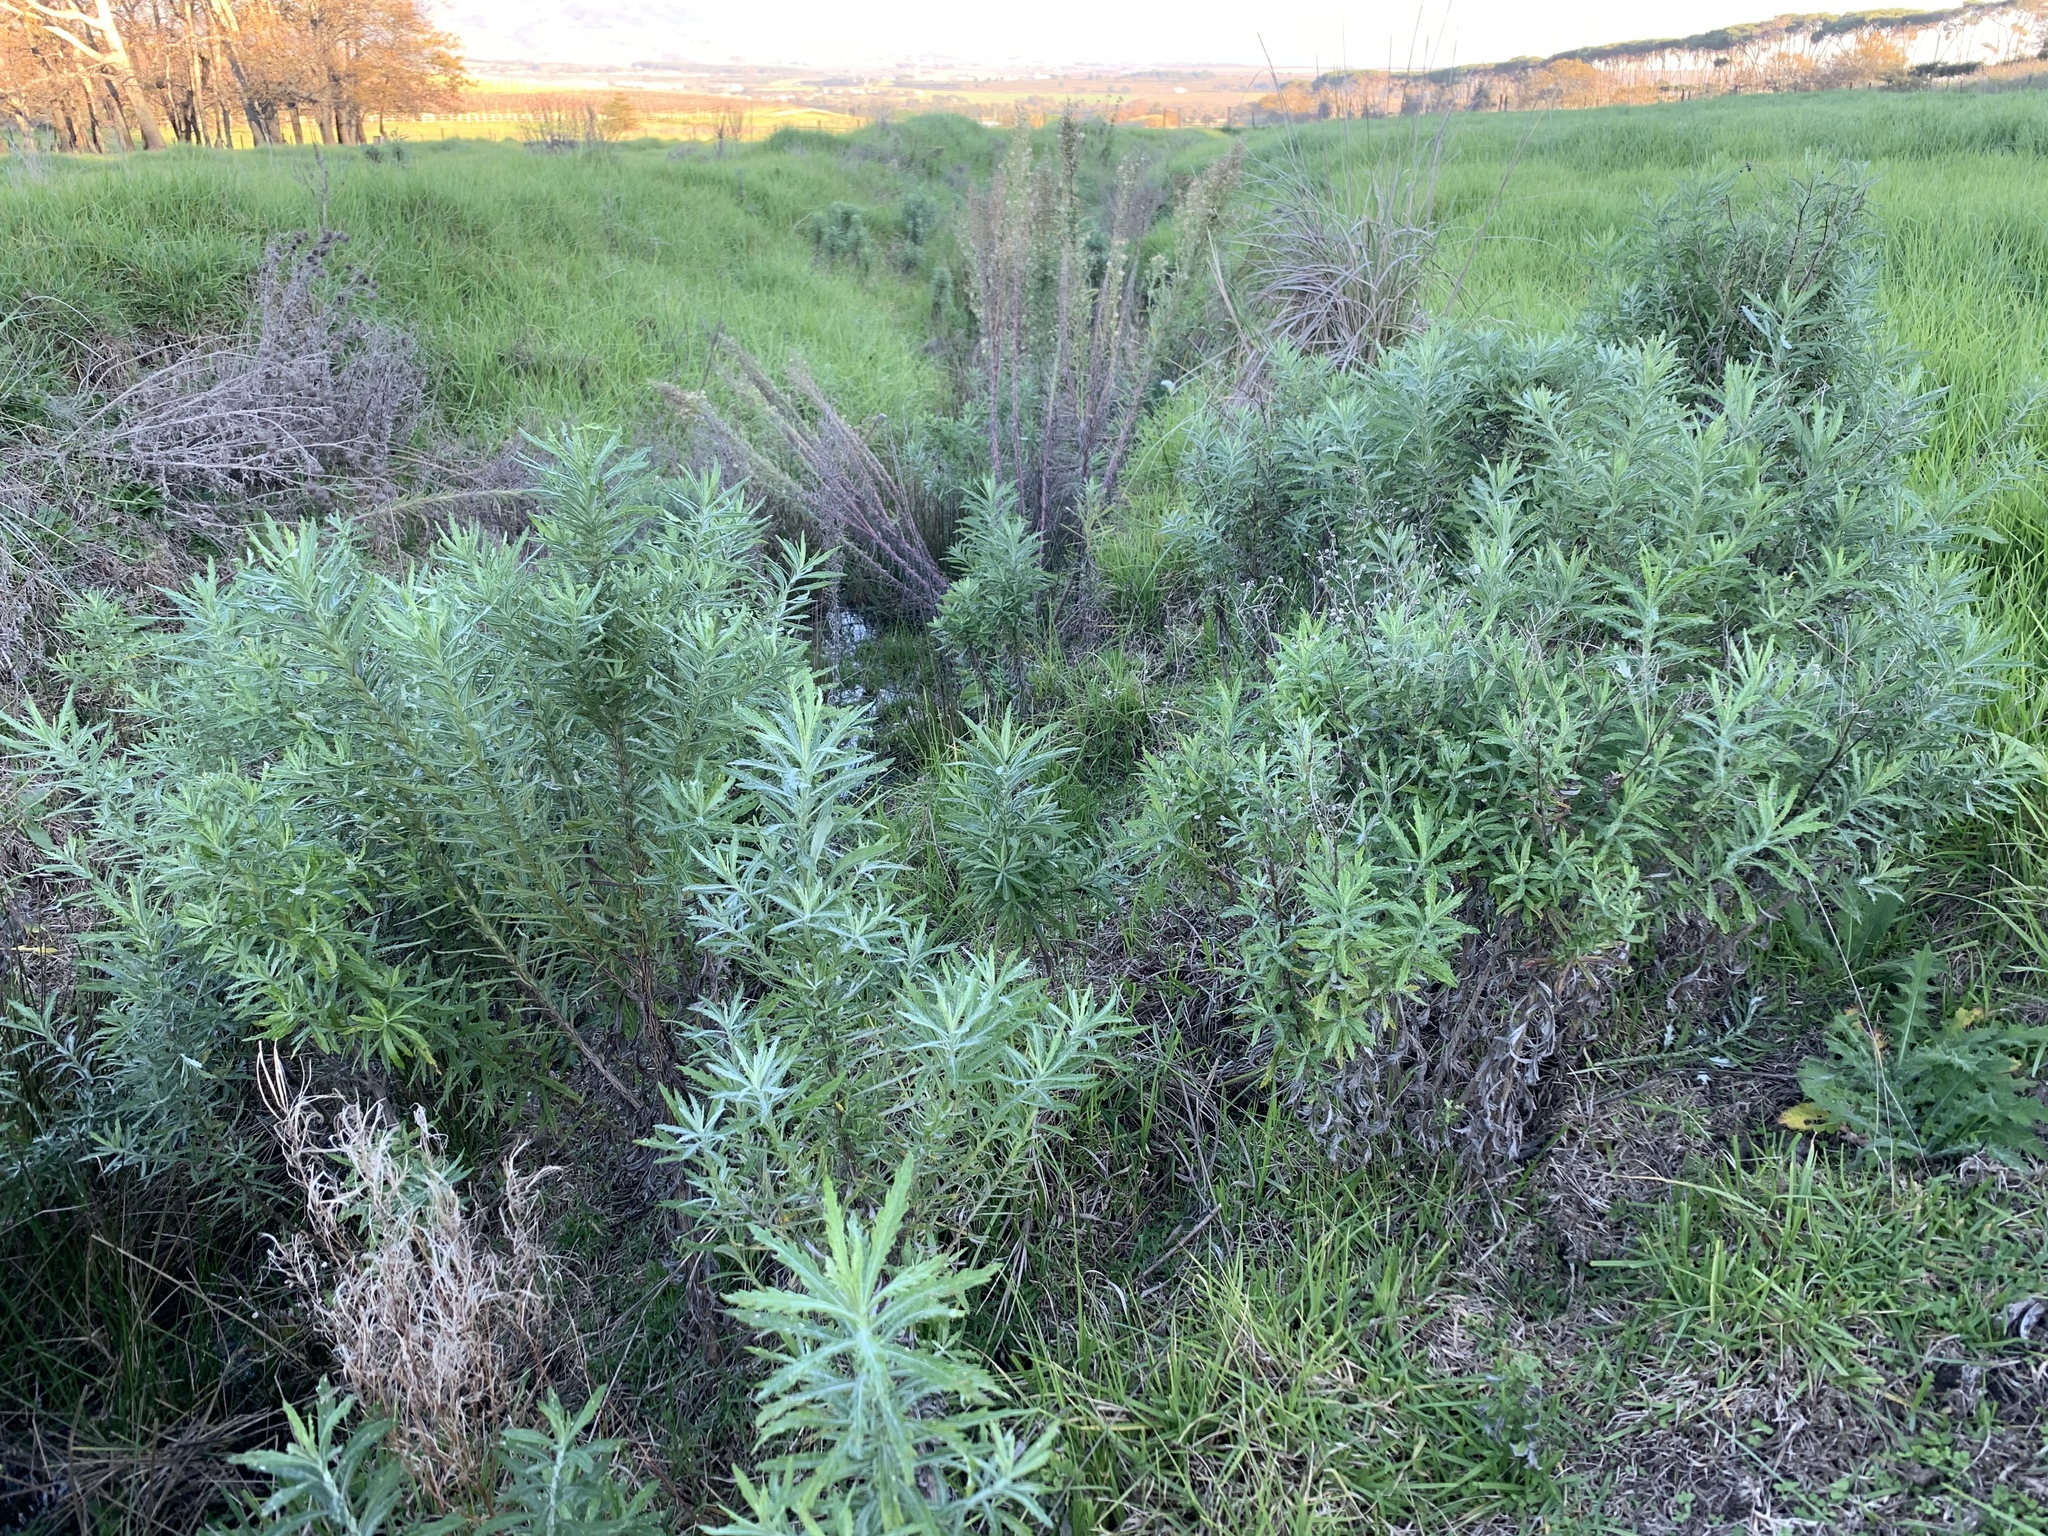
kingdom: Plantae
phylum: Tracheophyta
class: Magnoliopsida
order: Asterales
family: Asteraceae
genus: Senecio
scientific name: Senecio pterophorus
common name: Shoddy ragwort
